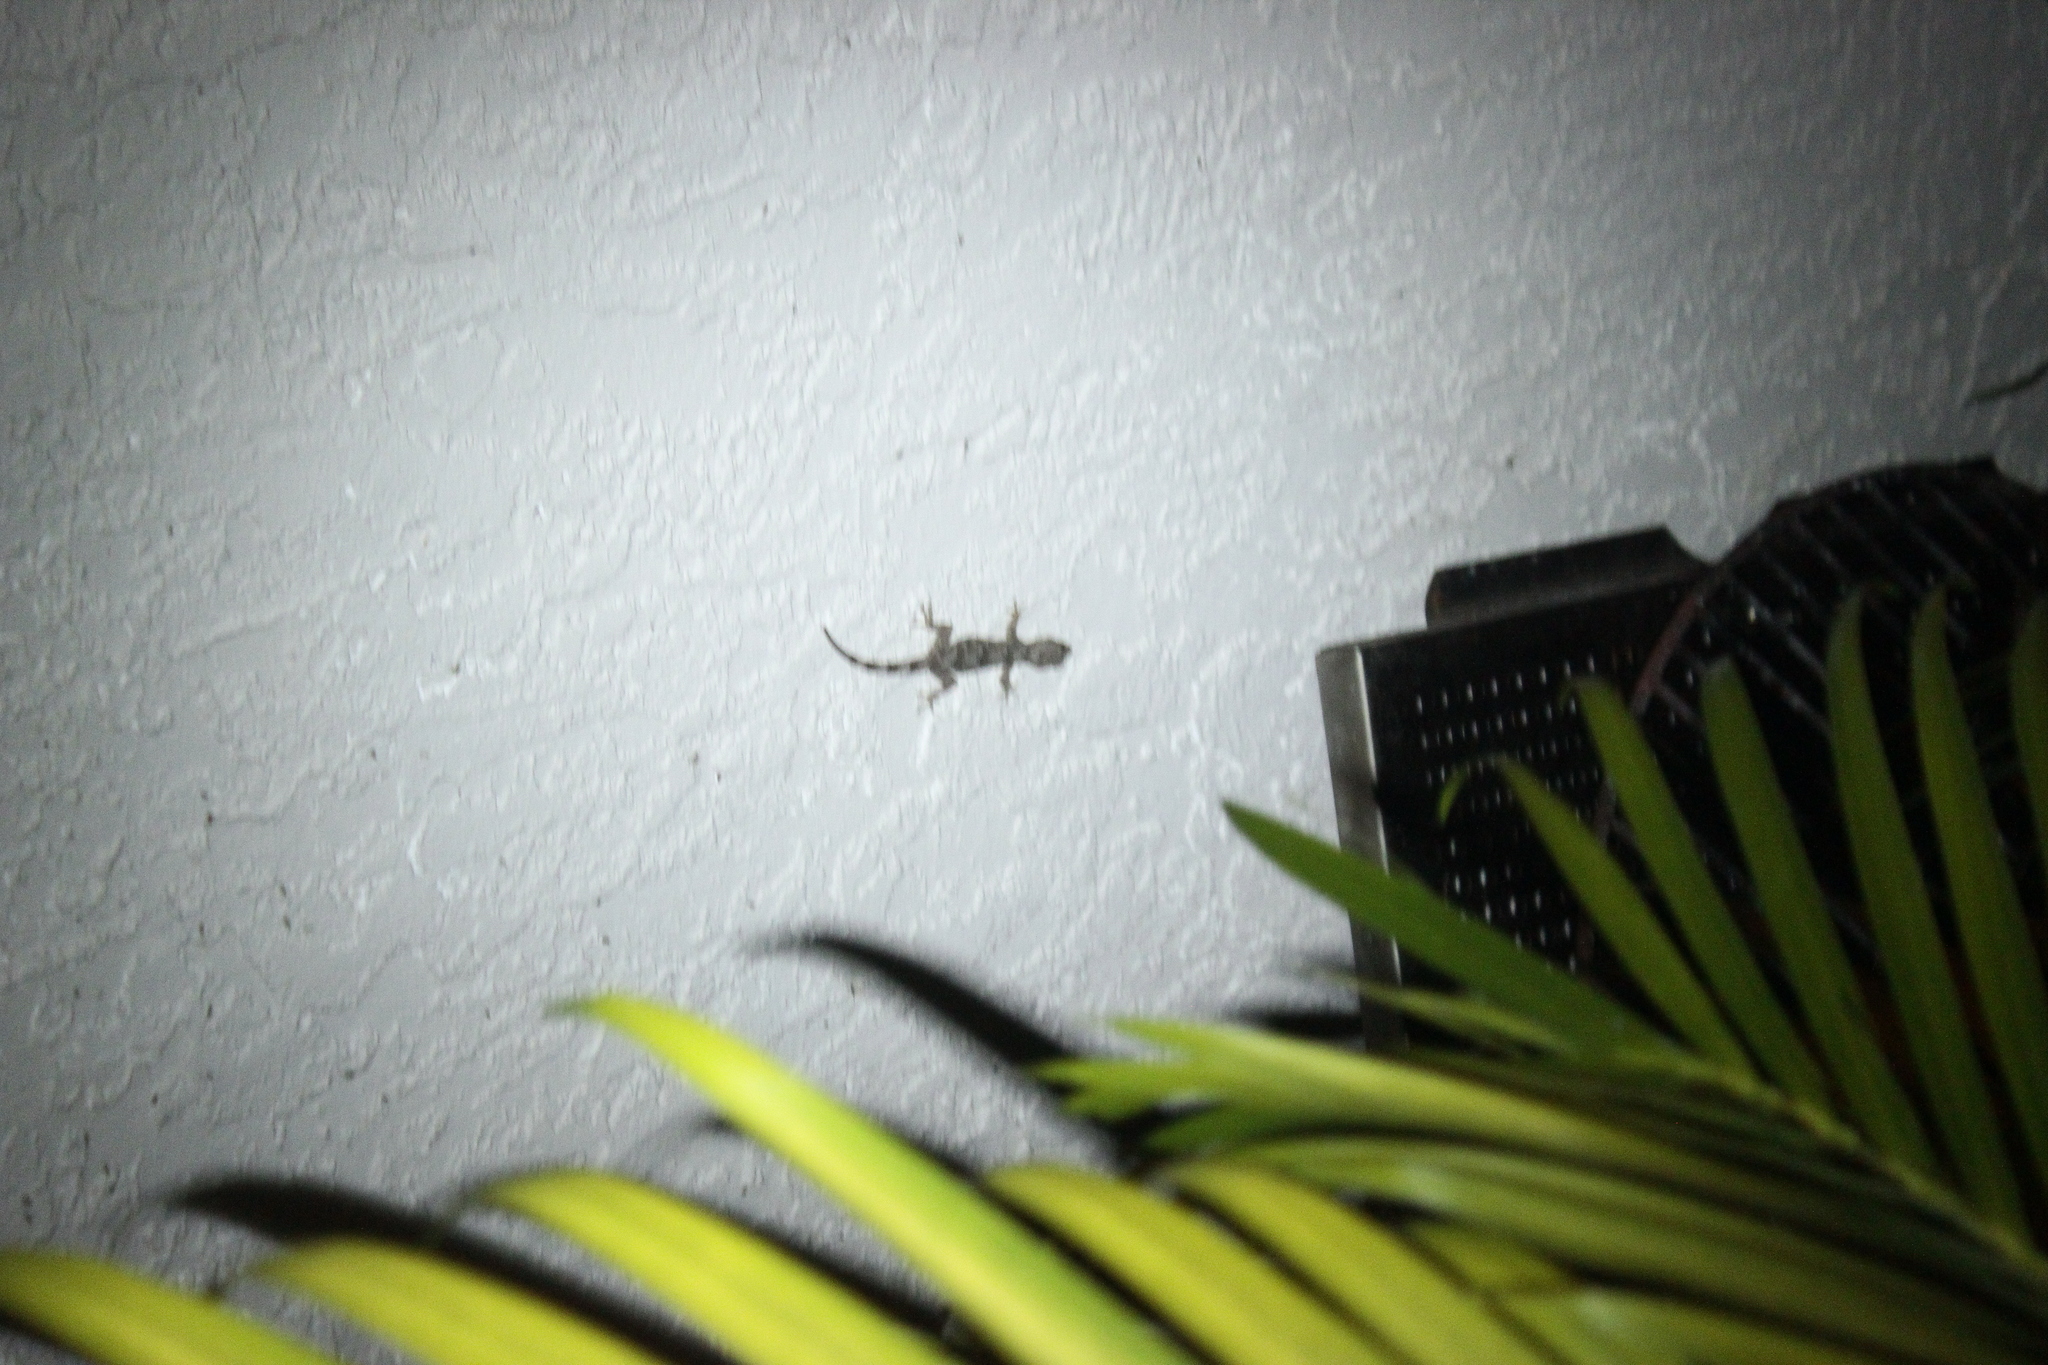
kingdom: Animalia
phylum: Chordata
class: Squamata
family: Gekkonidae
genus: Hemidactylus
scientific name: Hemidactylus mabouia
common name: House gecko
